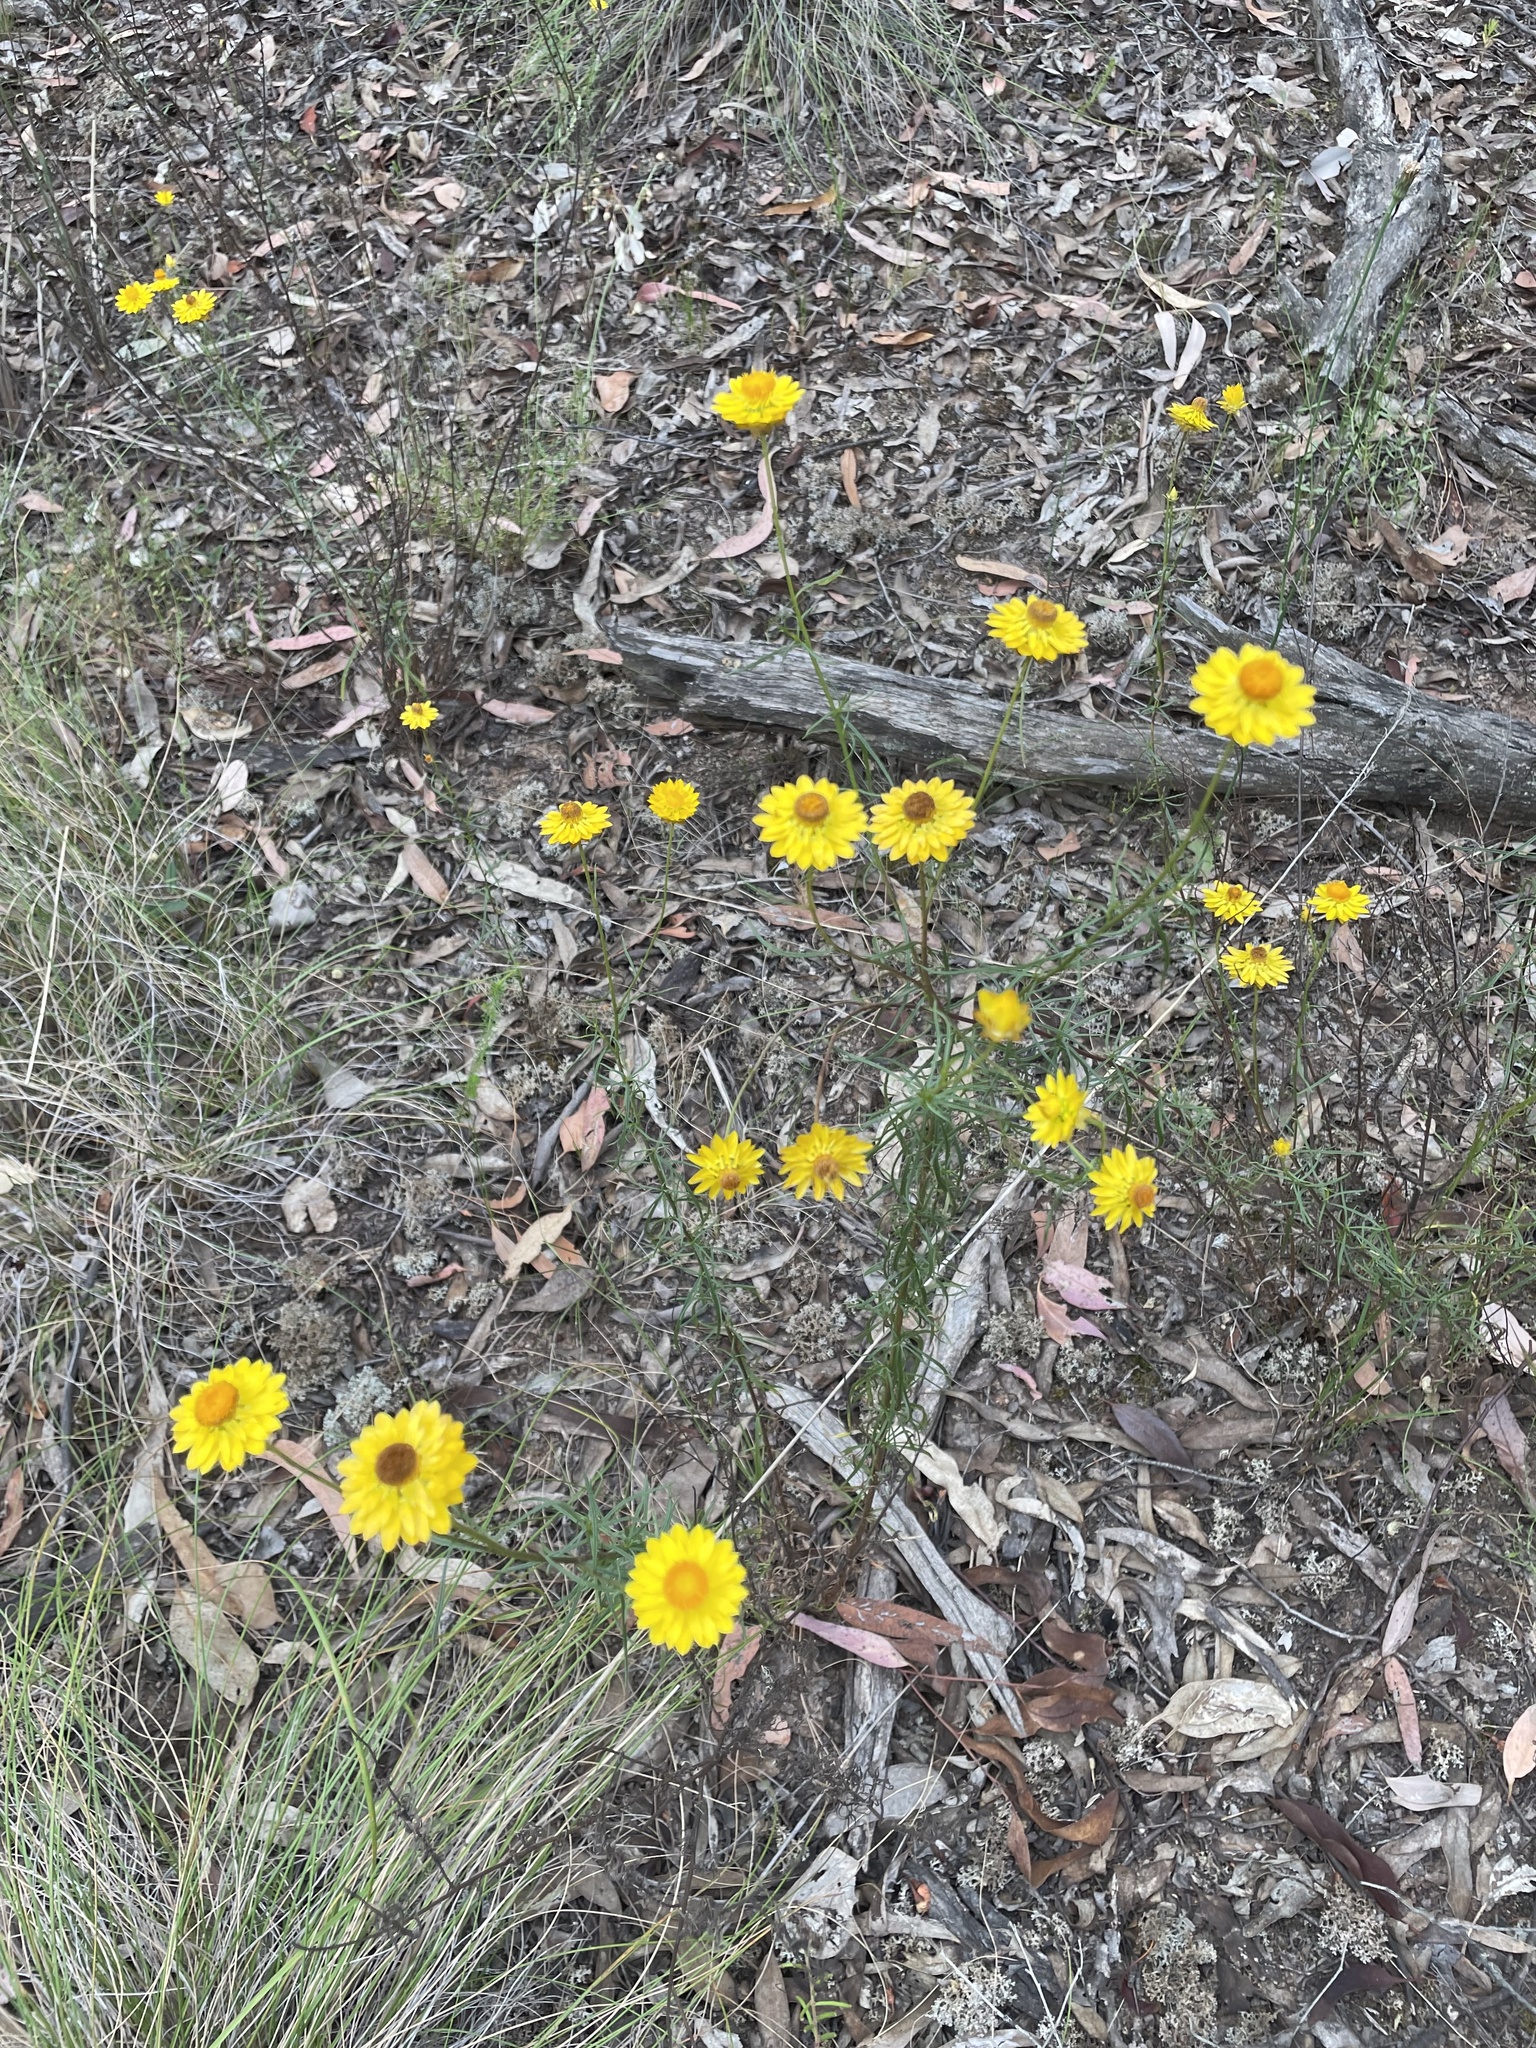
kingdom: Plantae
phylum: Tracheophyta
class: Magnoliopsida
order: Asterales
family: Asteraceae
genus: Xerochrysum
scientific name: Xerochrysum viscosum
